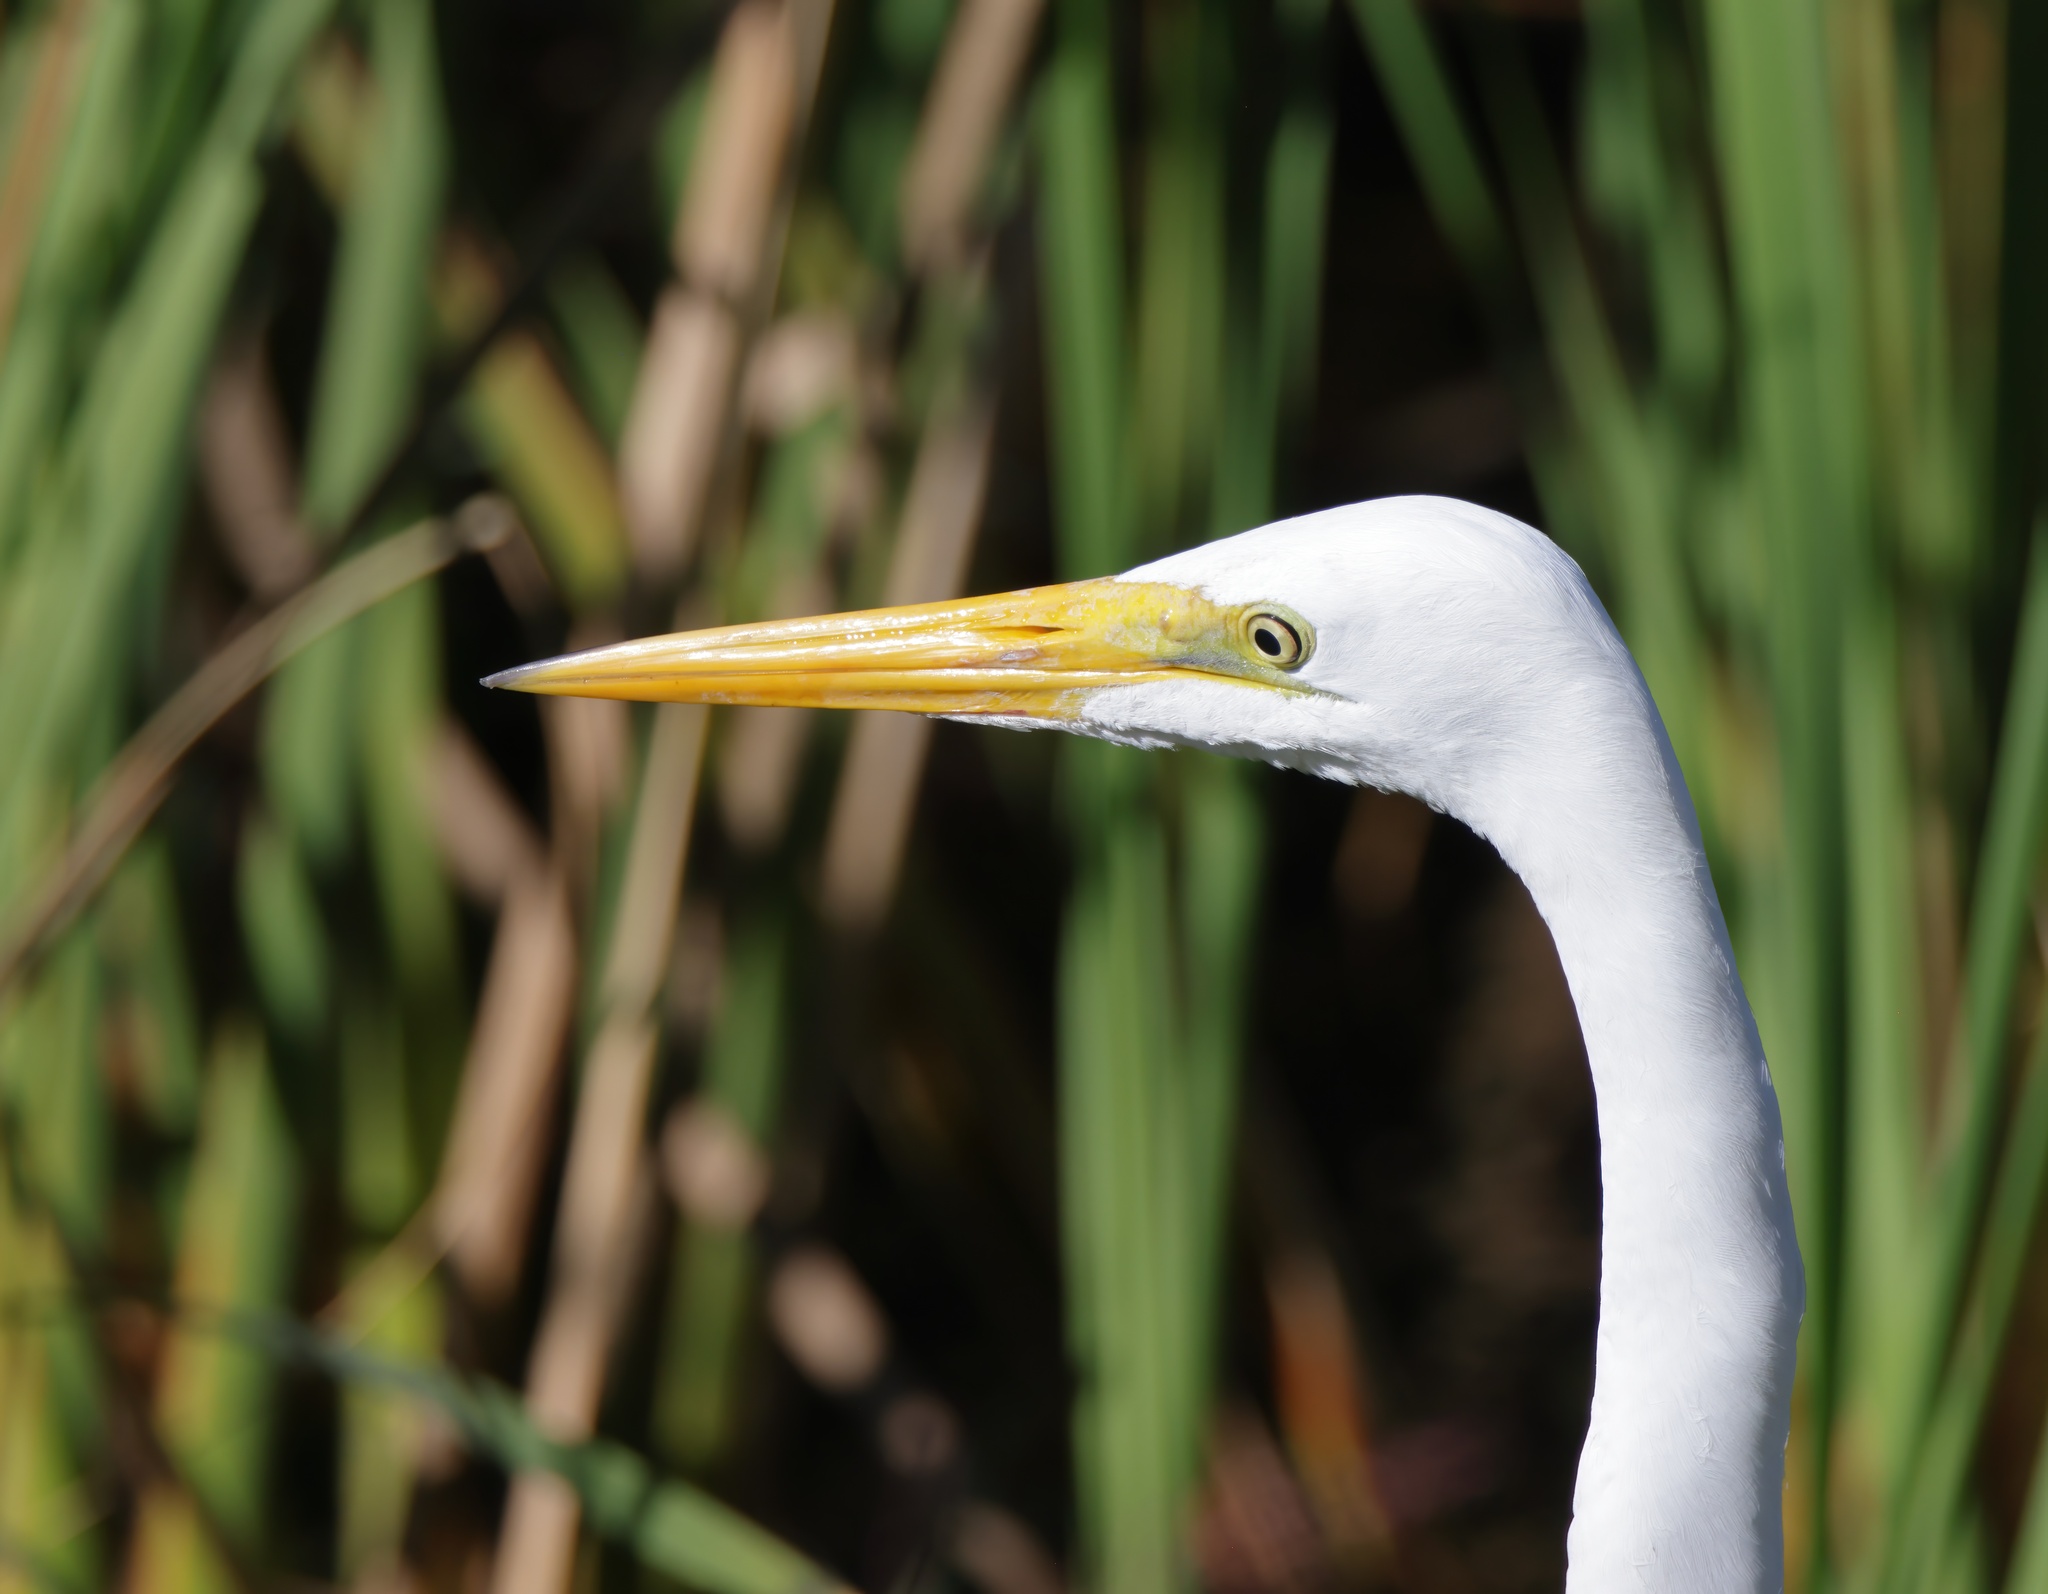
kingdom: Animalia
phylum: Chordata
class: Aves
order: Pelecaniformes
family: Ardeidae
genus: Ardea
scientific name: Ardea alba
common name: Great egret
